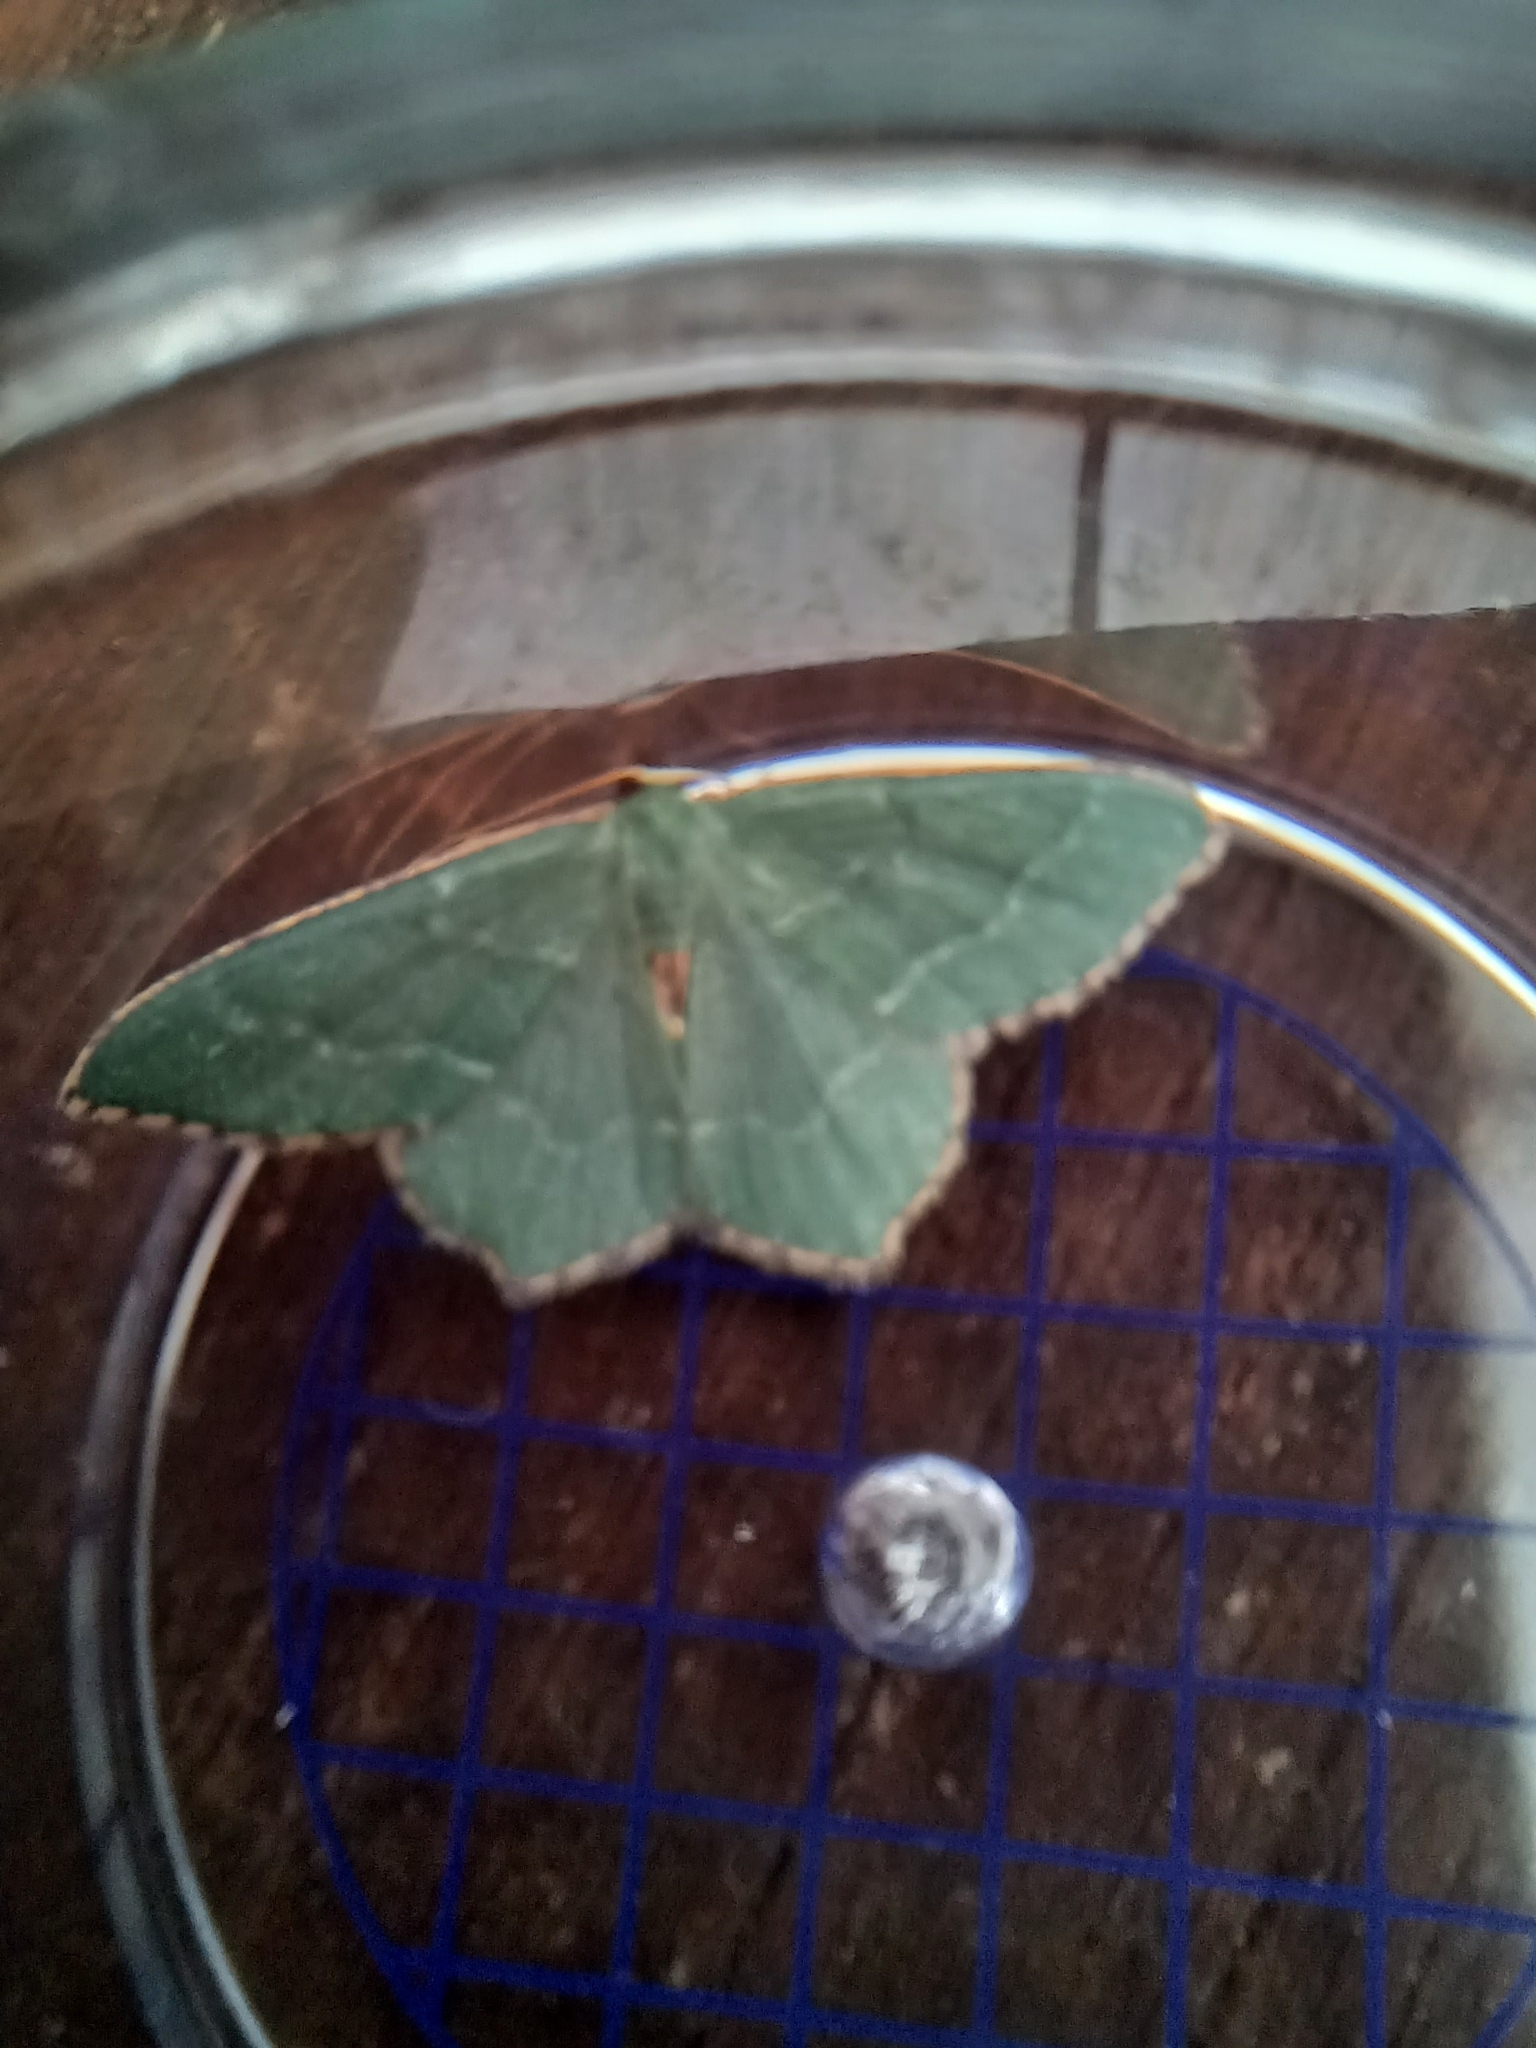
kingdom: Animalia
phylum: Arthropoda
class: Insecta
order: Lepidoptera
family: Geometridae
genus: Hemithea
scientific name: Hemithea aestivaria
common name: Common emerald
